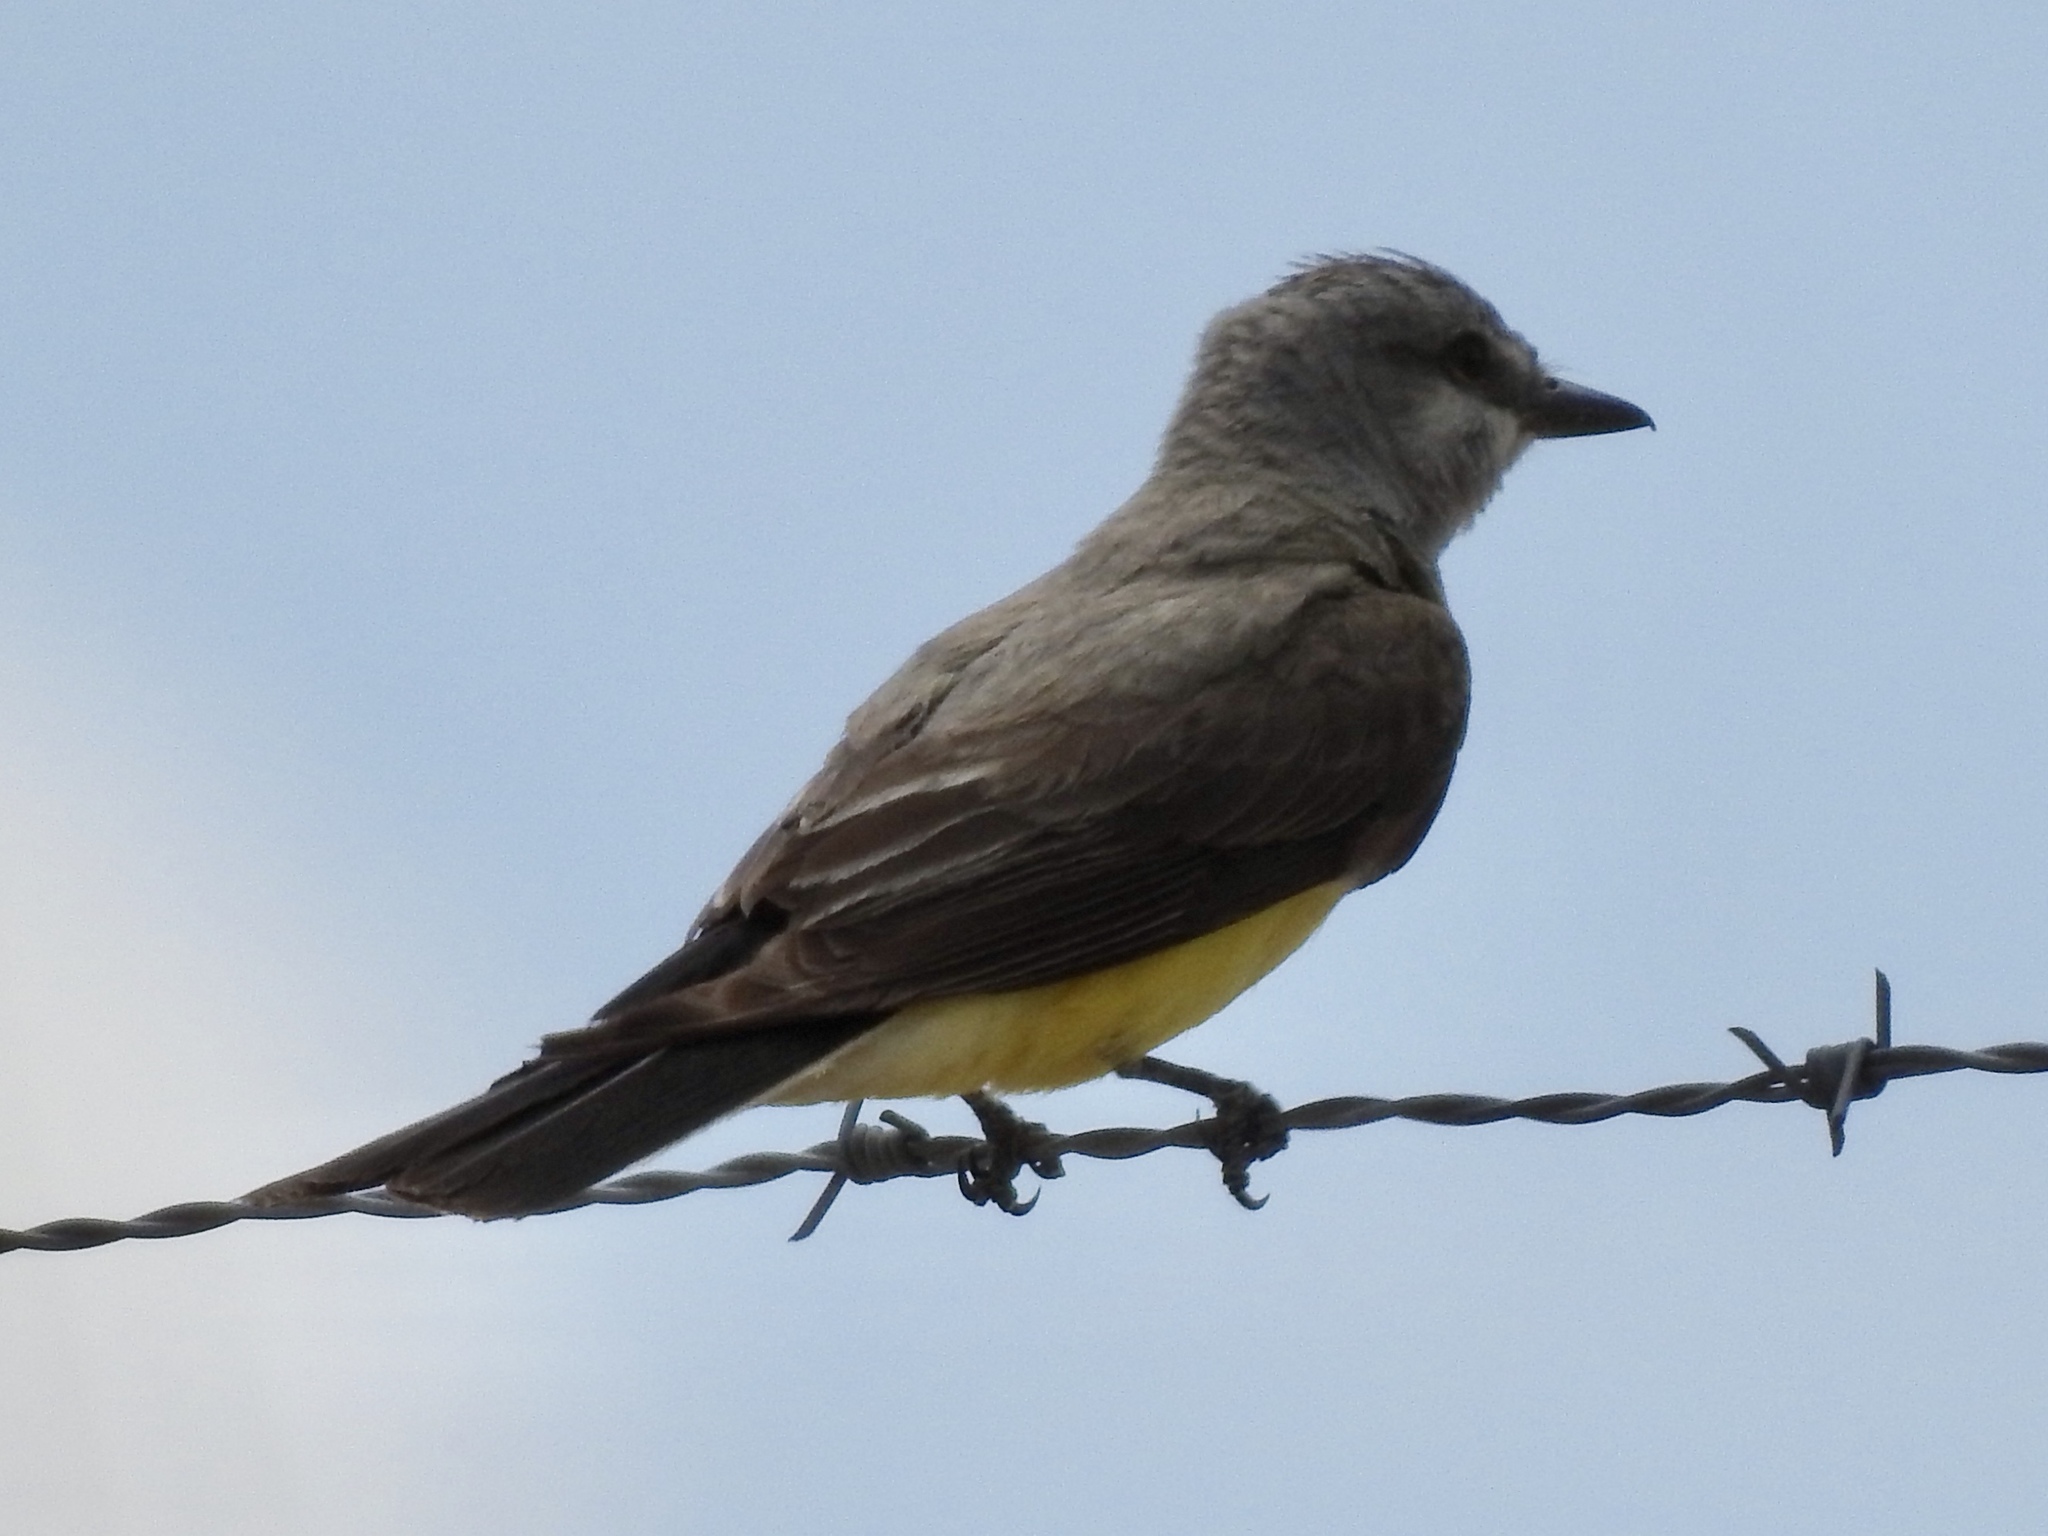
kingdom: Animalia
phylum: Chordata
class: Aves
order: Passeriformes
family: Tyrannidae
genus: Tyrannus
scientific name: Tyrannus verticalis
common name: Western kingbird
